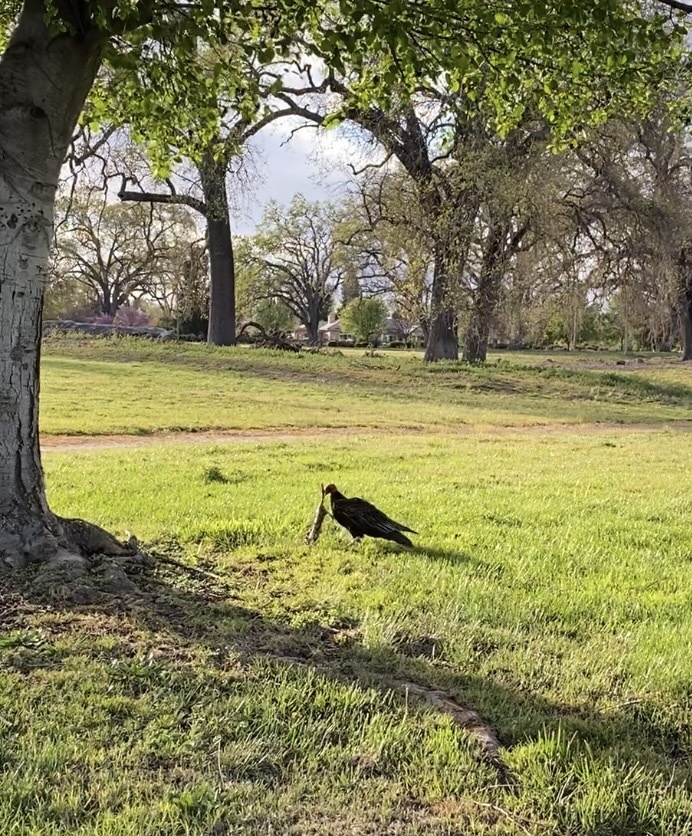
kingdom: Animalia
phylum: Chordata
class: Aves
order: Accipitriformes
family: Cathartidae
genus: Cathartes
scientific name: Cathartes aura
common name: Turkey vulture
